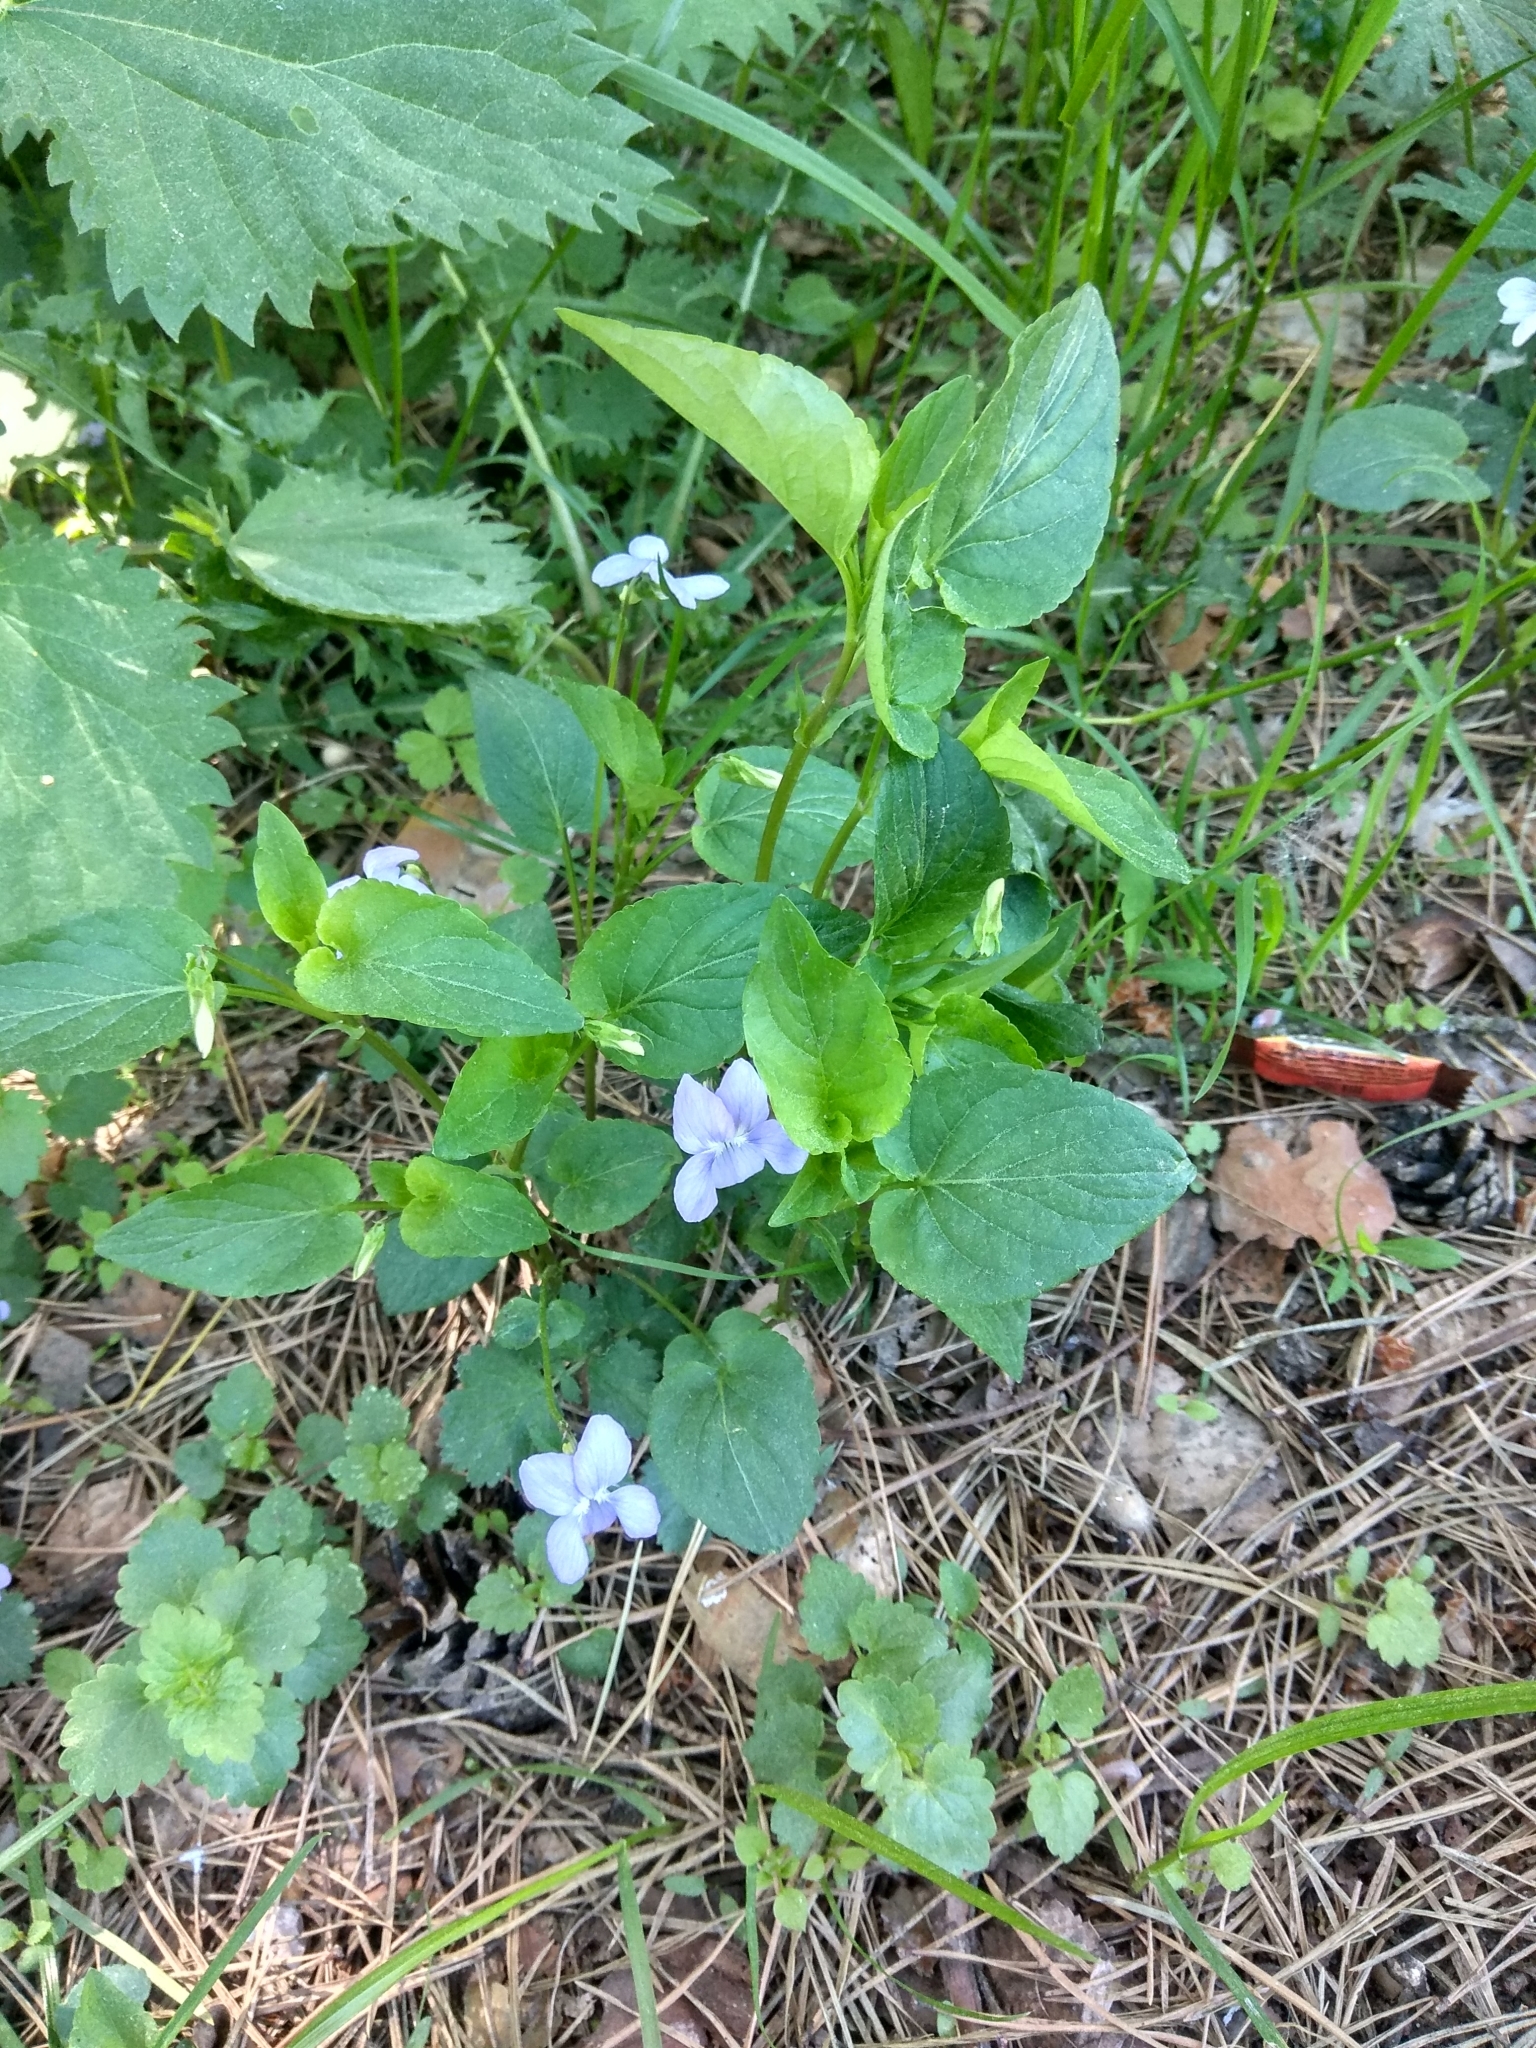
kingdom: Plantae
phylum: Tracheophyta
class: Magnoliopsida
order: Malpighiales
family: Violaceae
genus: Viola
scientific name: Viola canina
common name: Heath dog-violet
